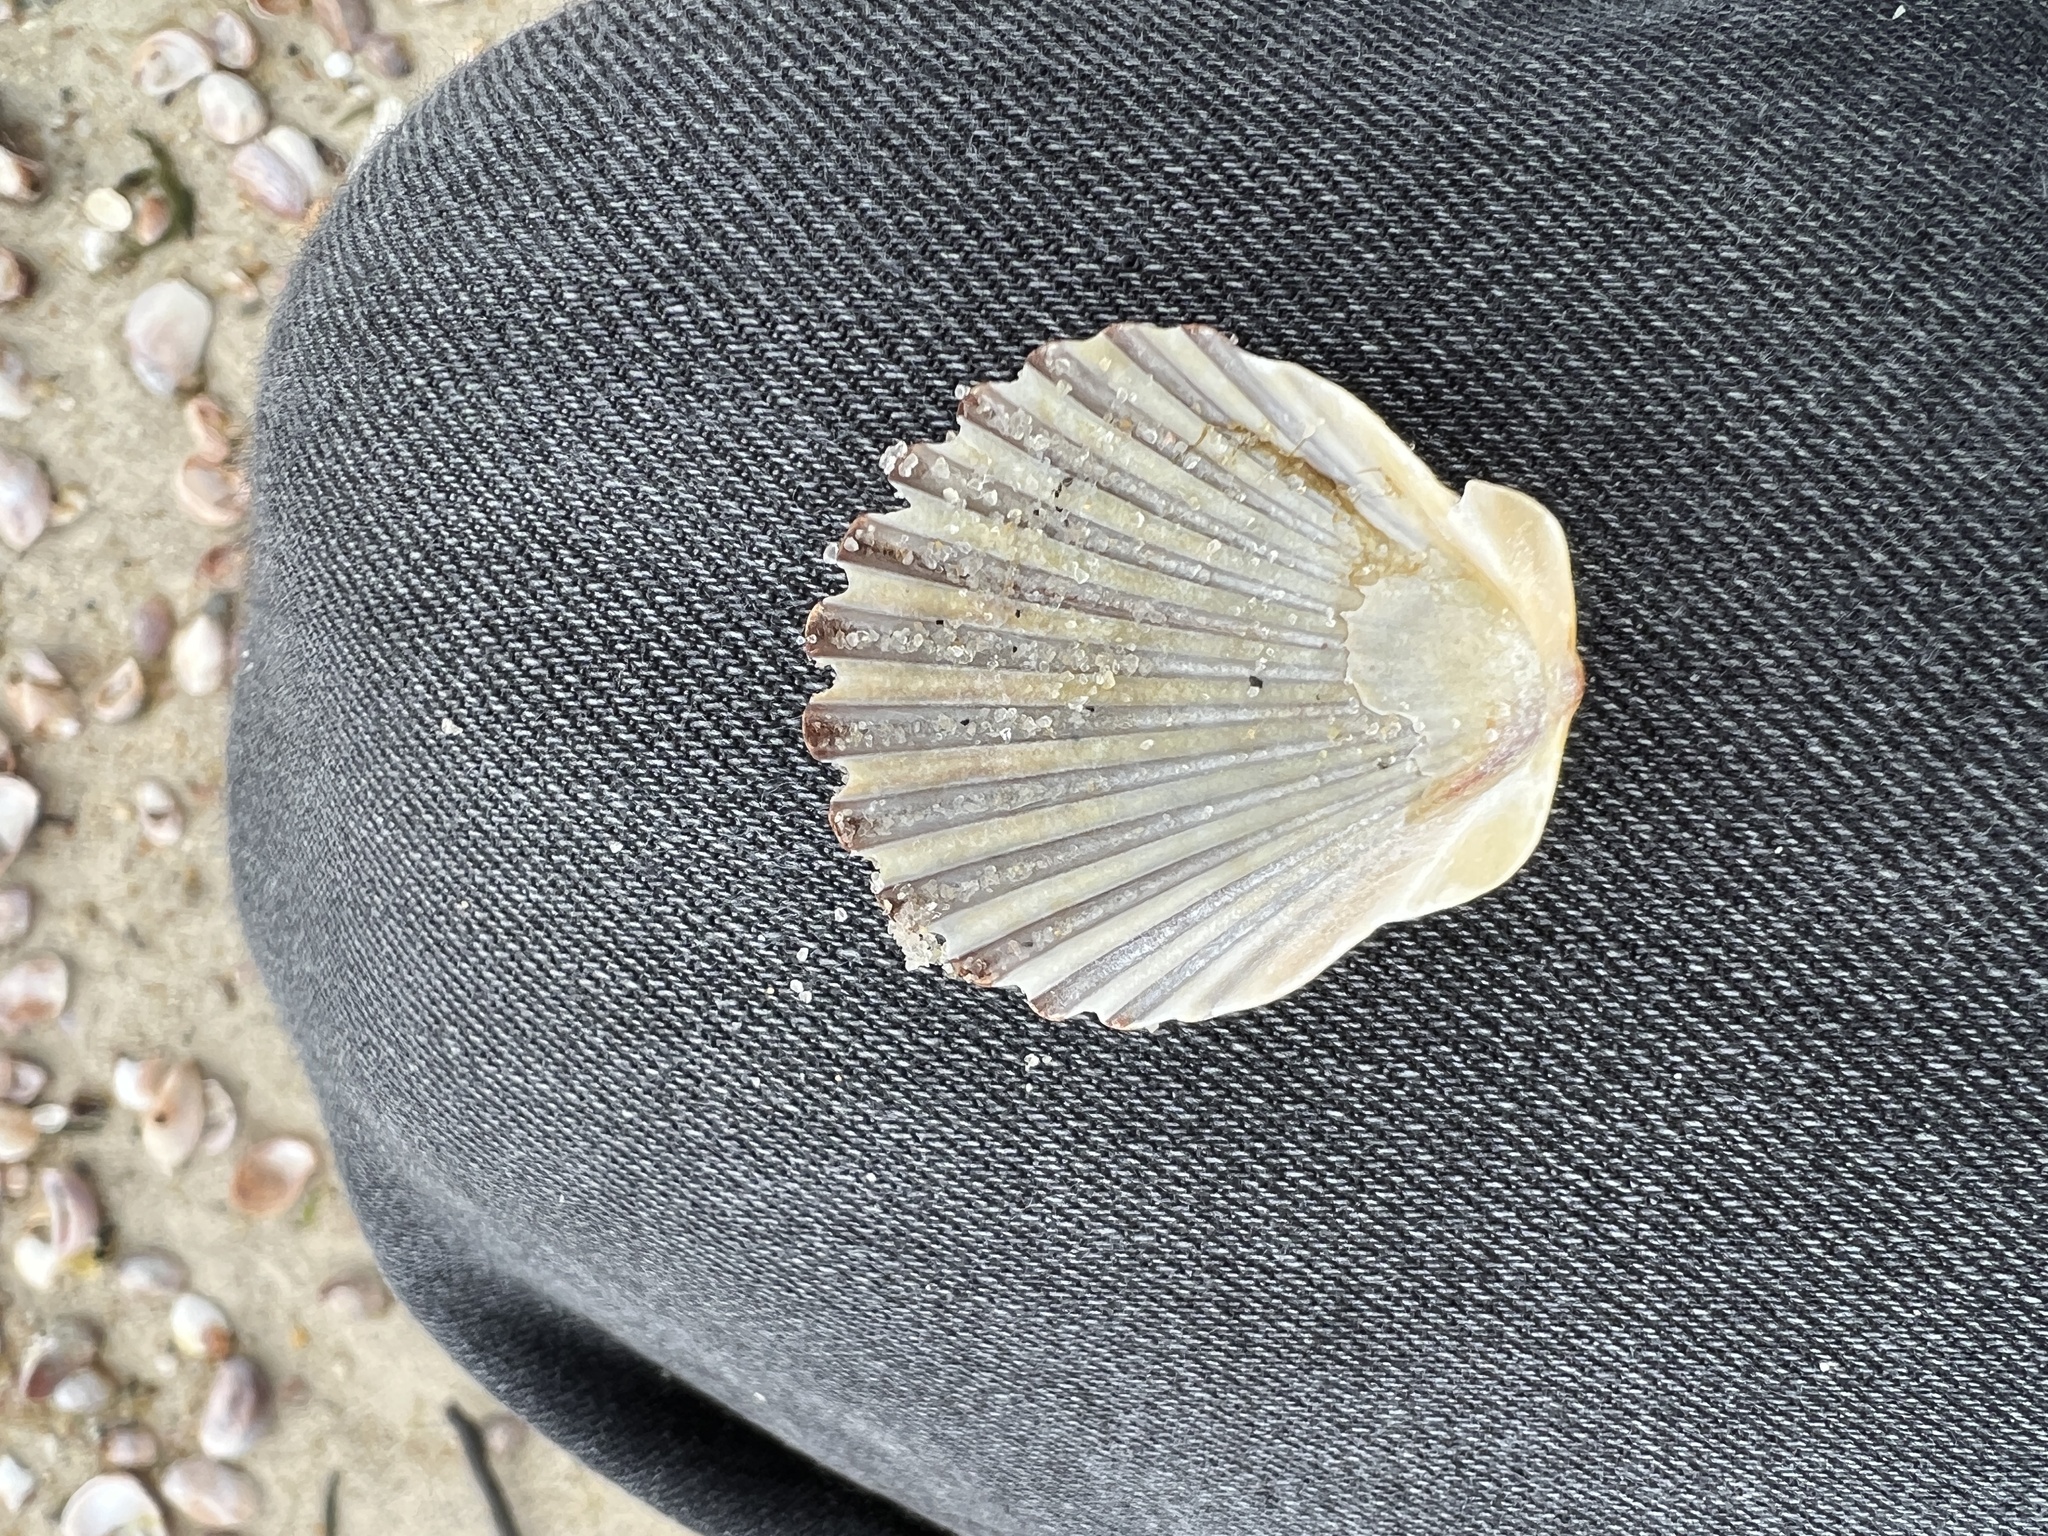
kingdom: Animalia
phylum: Mollusca
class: Bivalvia
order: Pectinida
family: Pectinidae
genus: Argopecten
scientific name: Argopecten irradians
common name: Atlantic bay scallop
